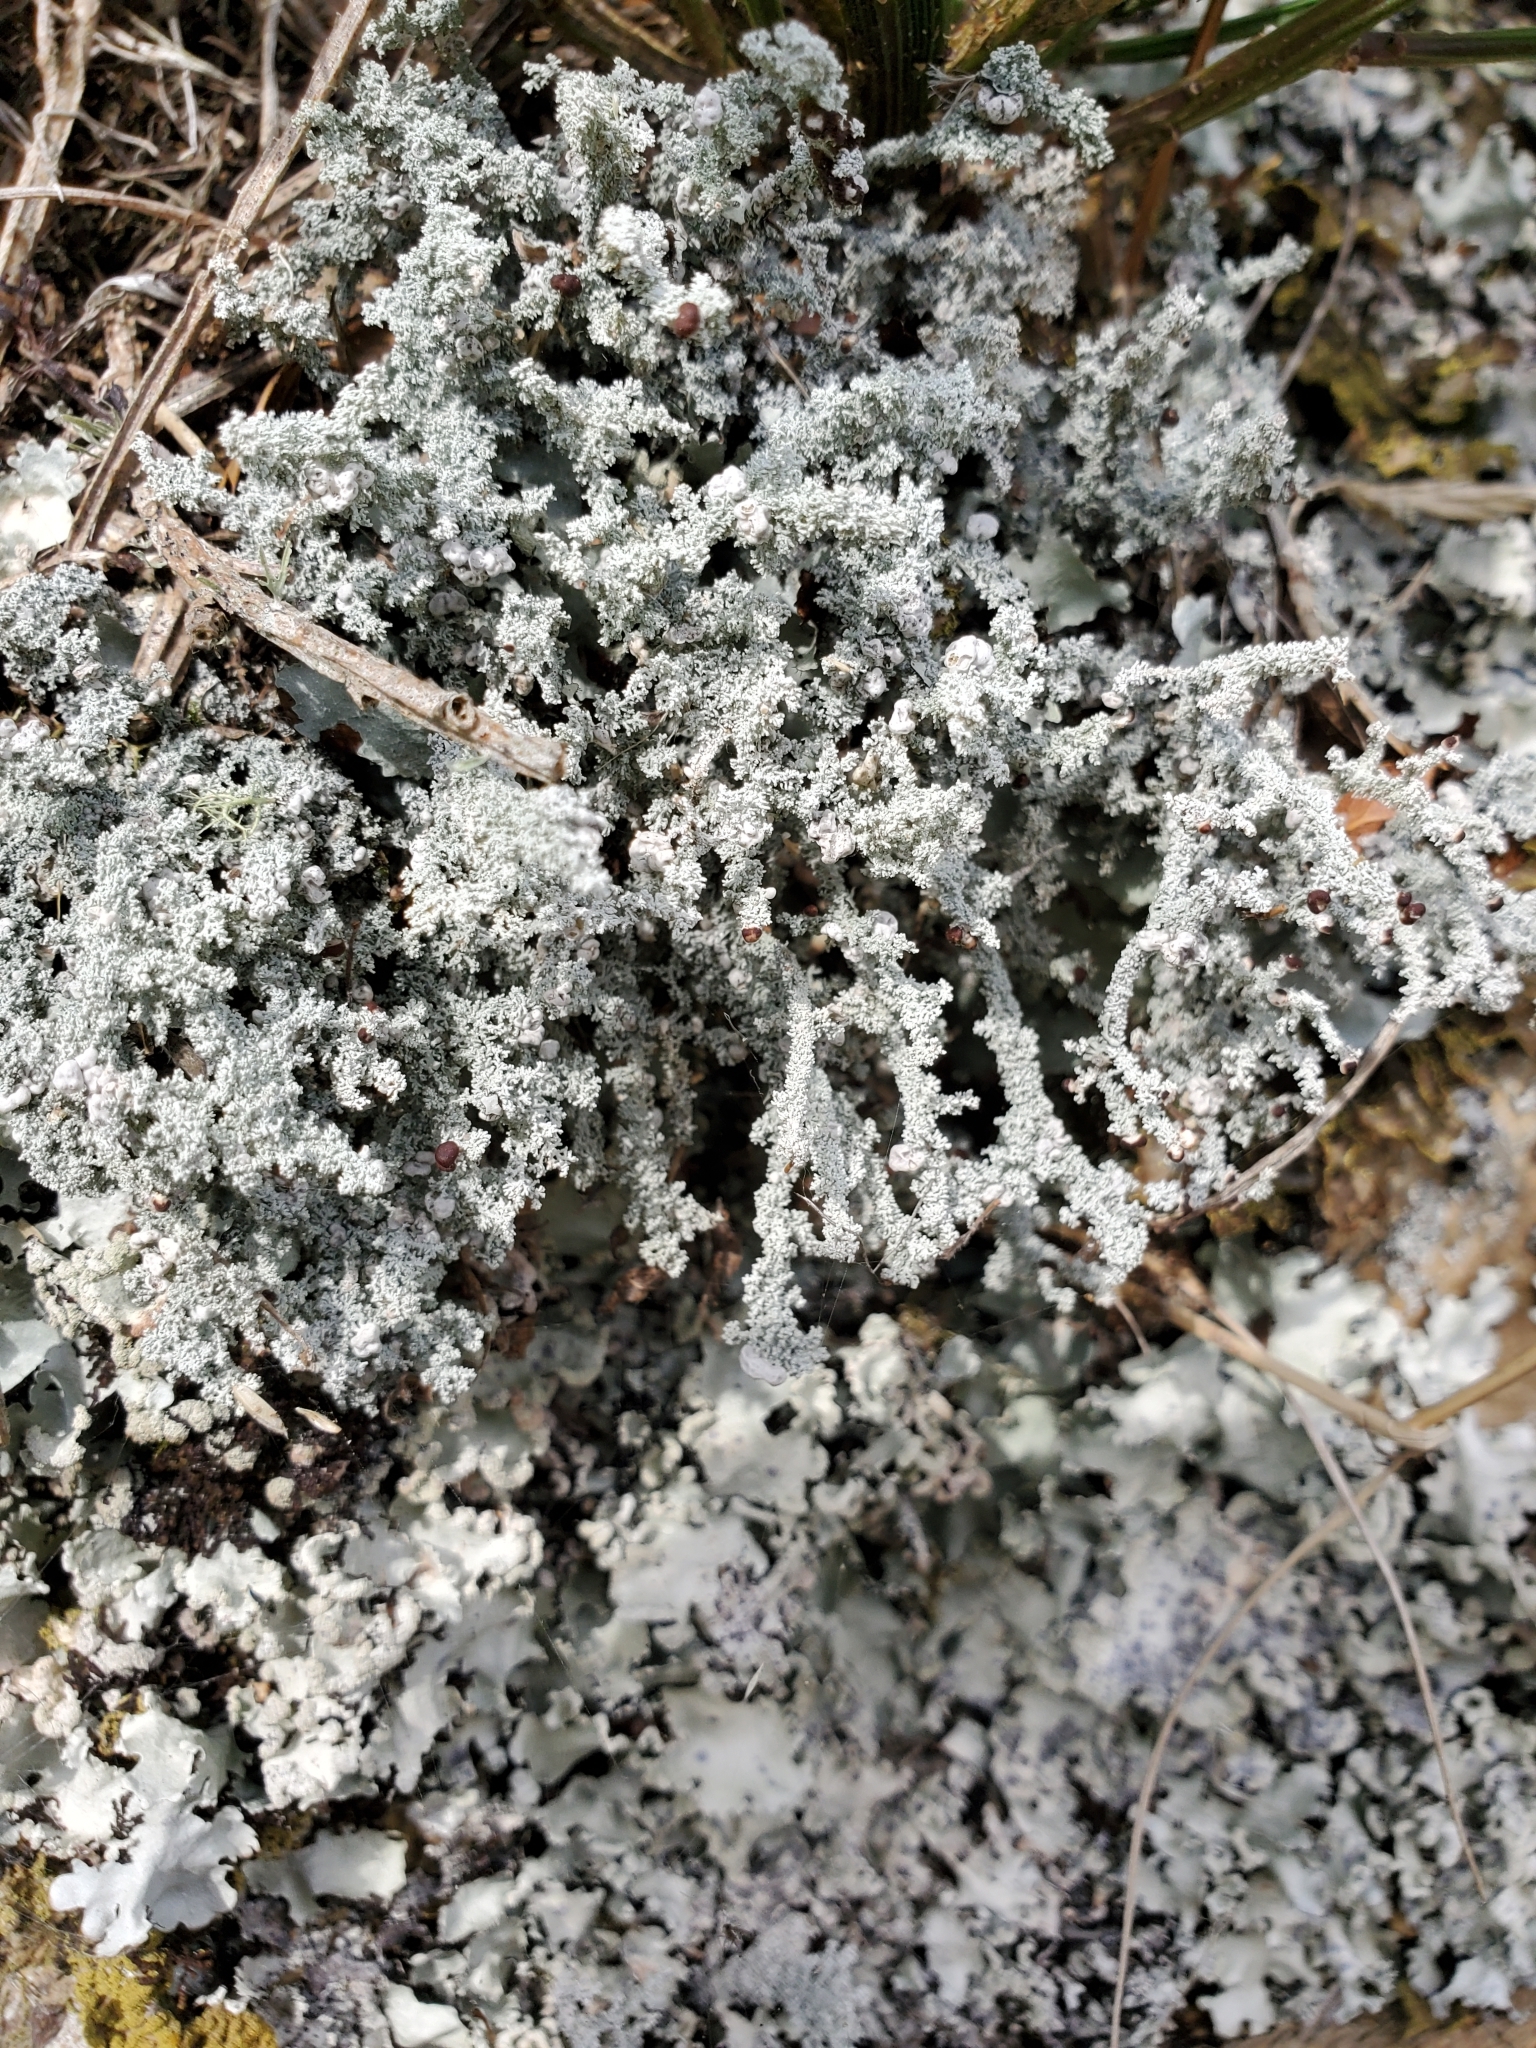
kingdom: Fungi
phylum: Ascomycota
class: Lecanoromycetes
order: Lecanorales
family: Stereocaulaceae
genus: Stereocaulon
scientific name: Stereocaulon ramulosum
